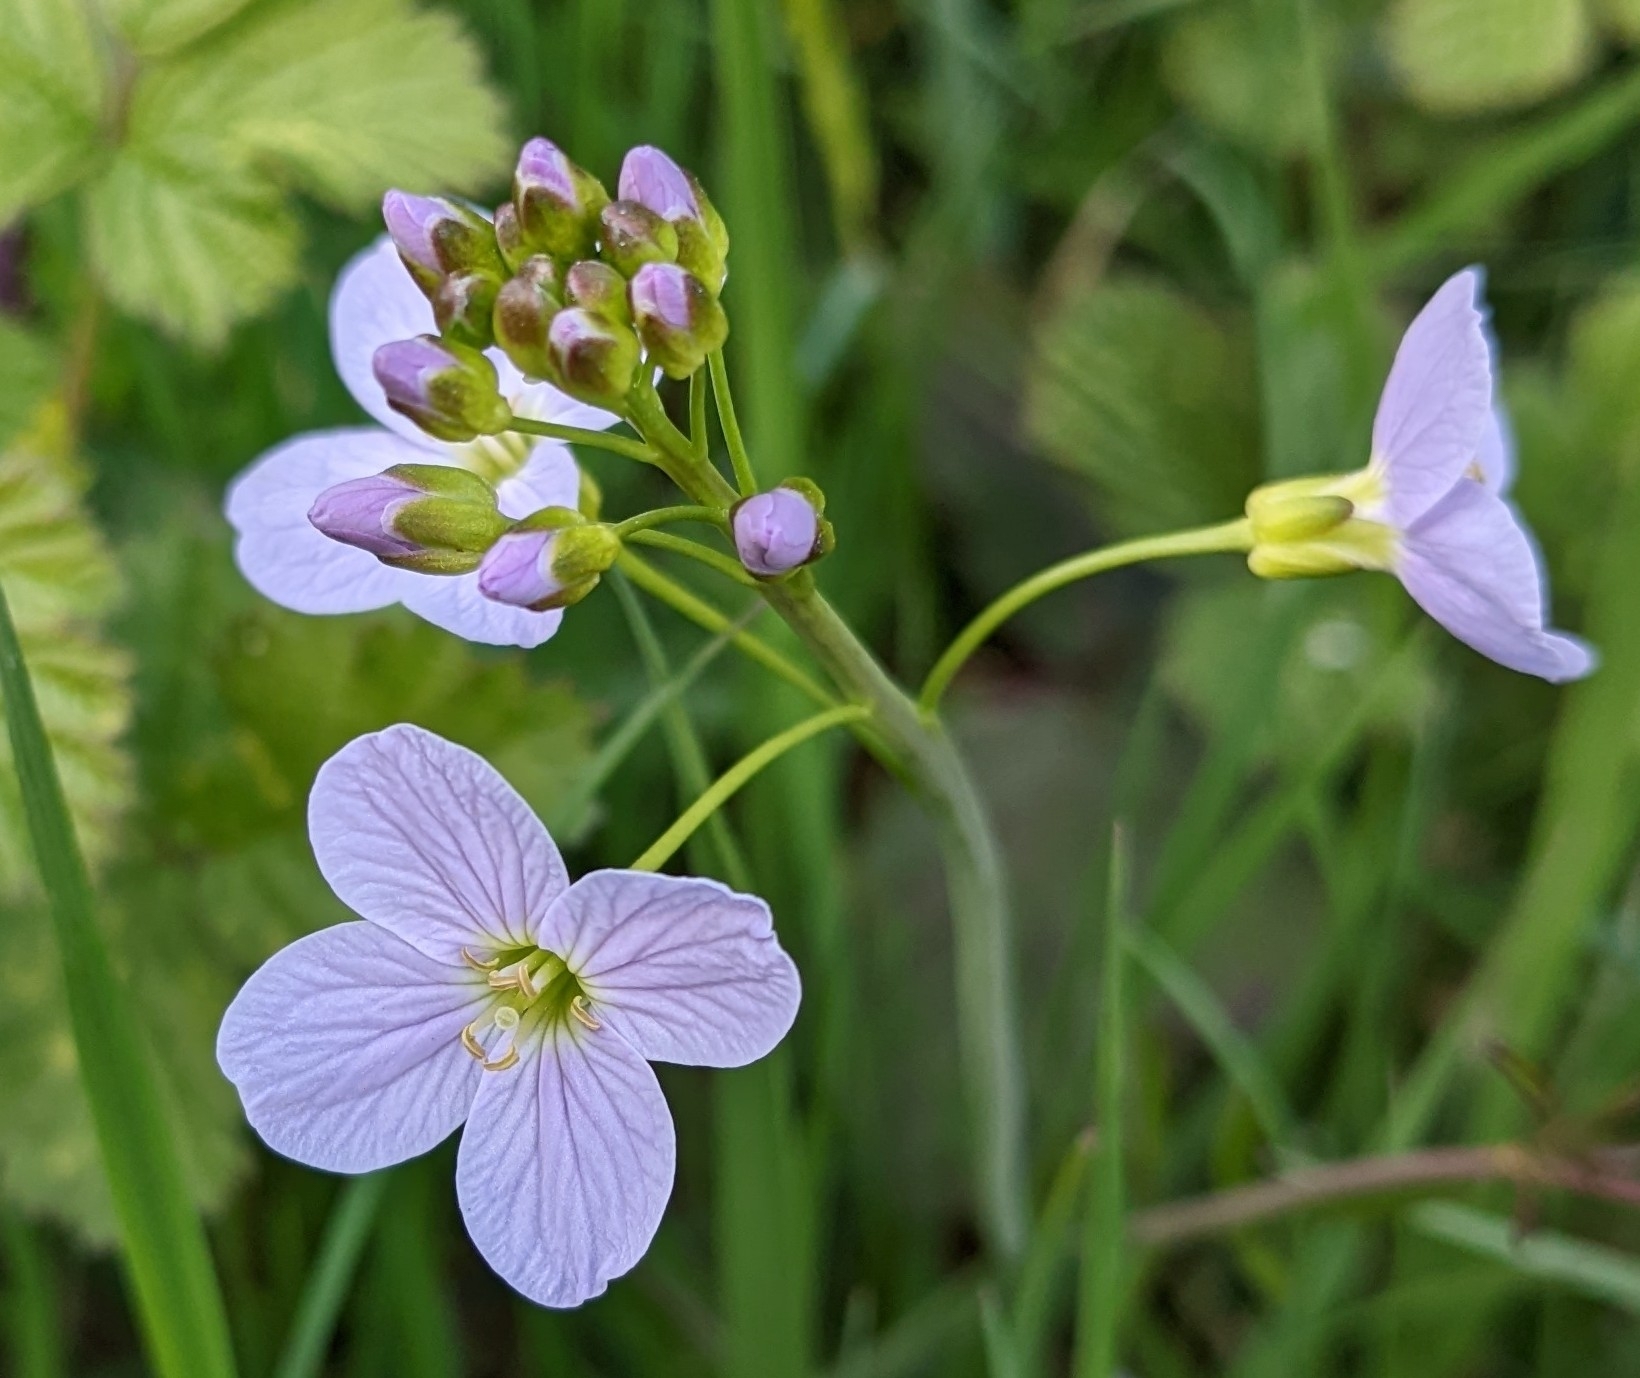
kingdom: Plantae
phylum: Tracheophyta
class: Magnoliopsida
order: Brassicales
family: Brassicaceae
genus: Cardamine
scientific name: Cardamine pratensis
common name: Cuckoo flower
